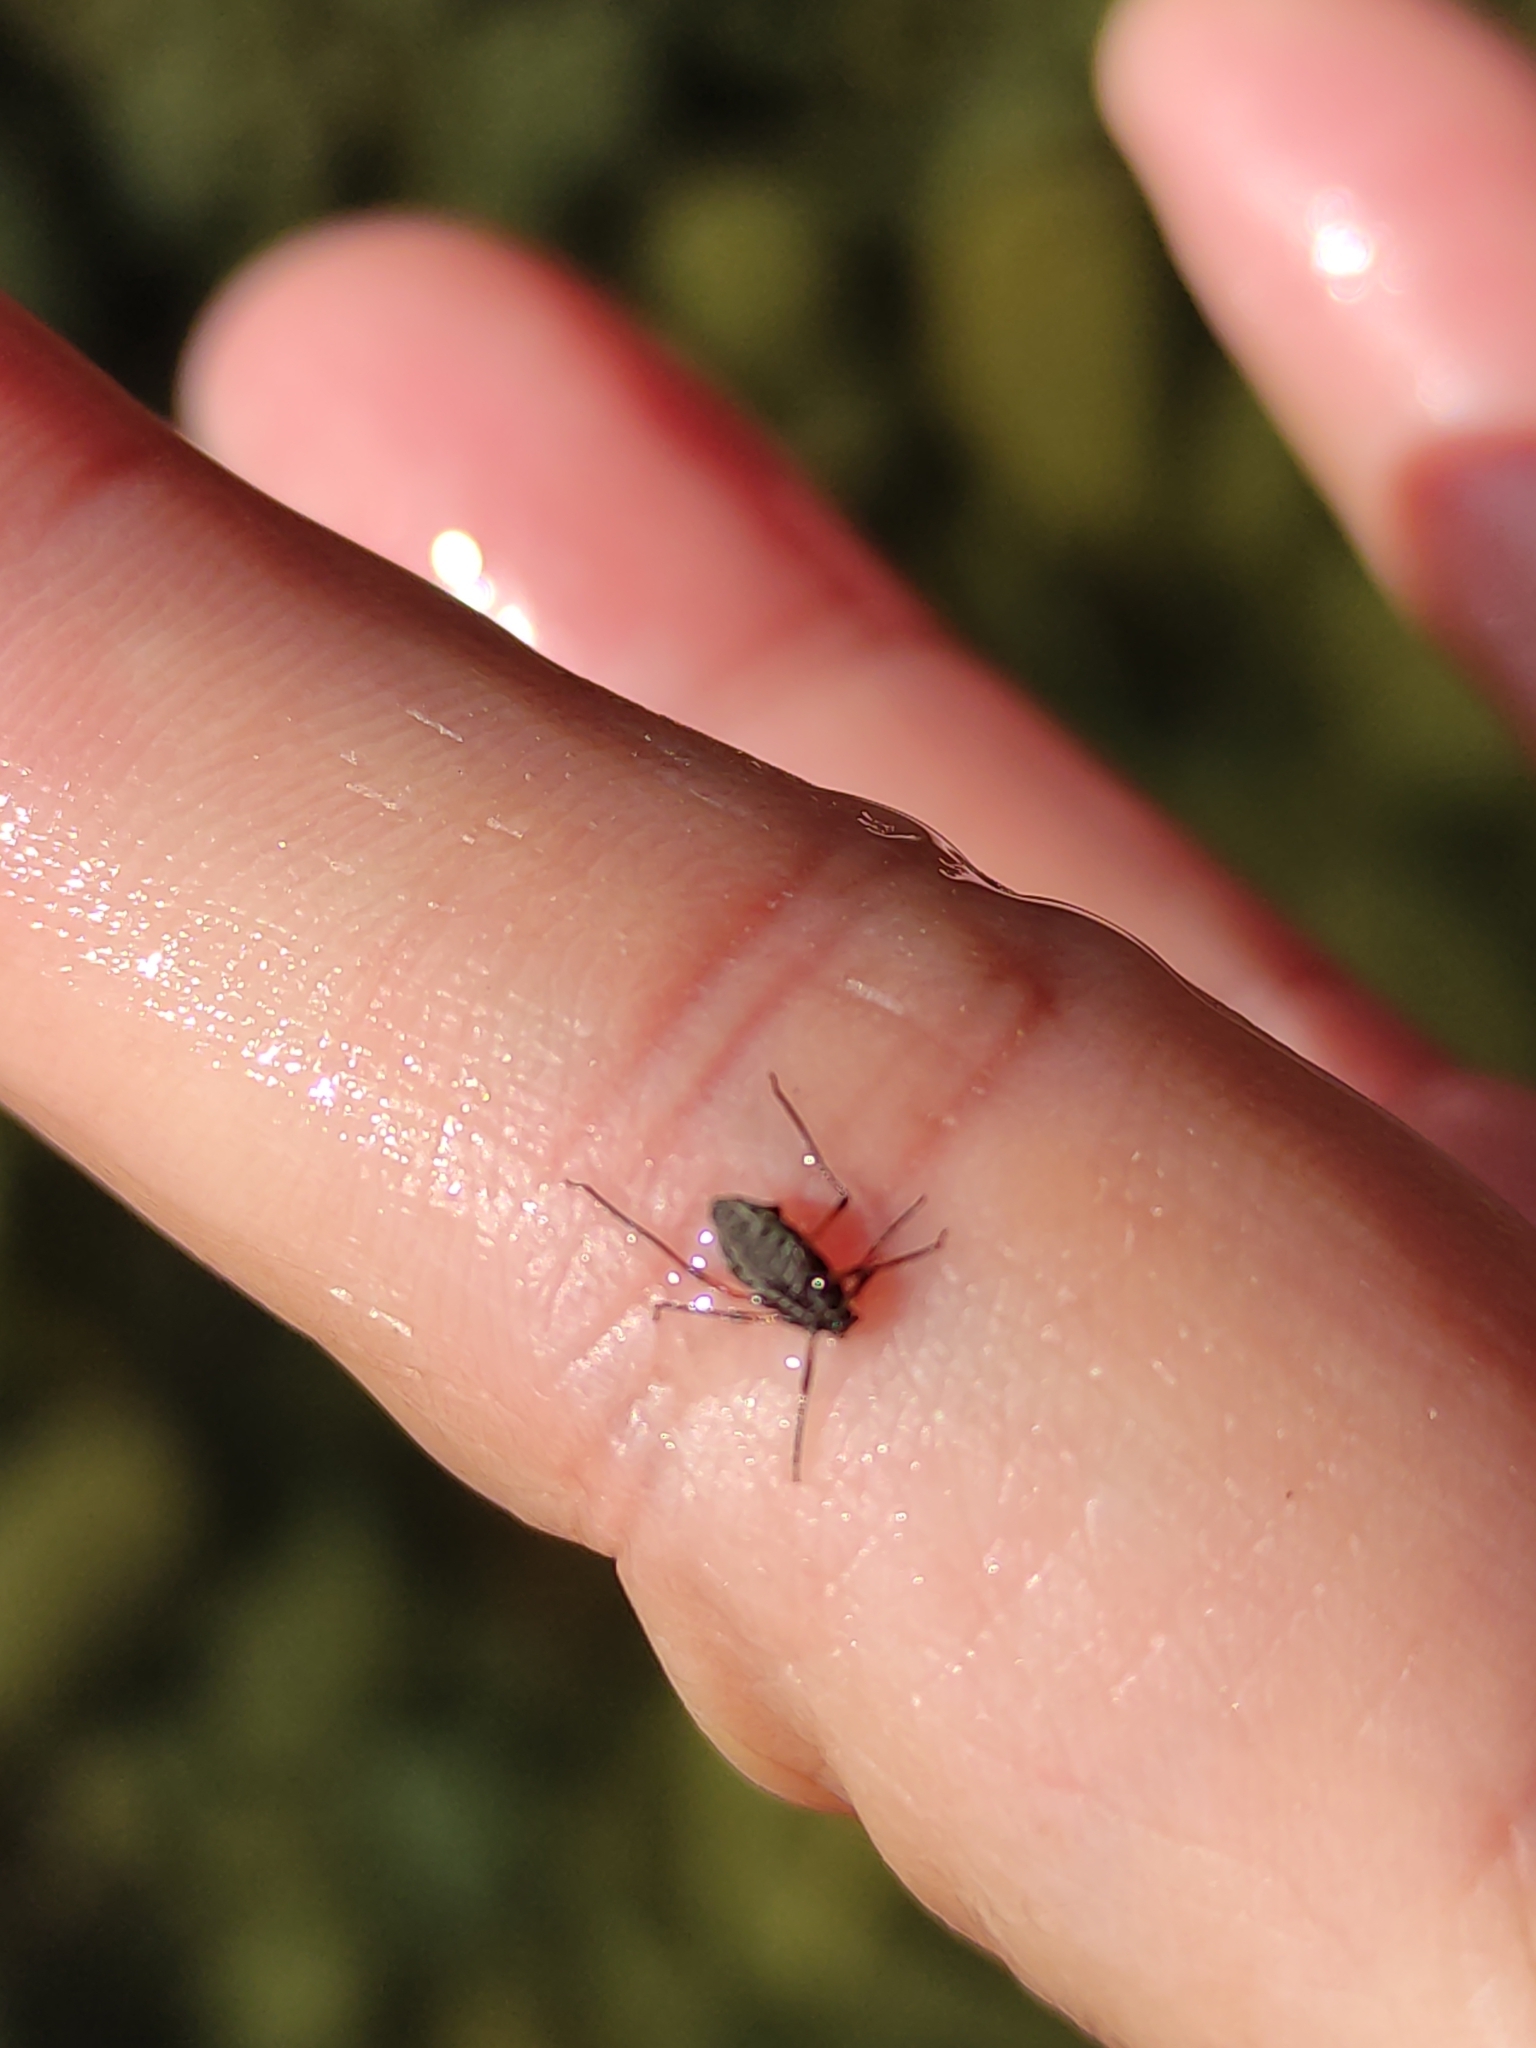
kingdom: Animalia
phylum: Arthropoda
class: Insecta
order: Hemiptera
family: Aphididae
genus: Tuberolachnus
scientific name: Tuberolachnus salignus
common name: Giant willow aphid
